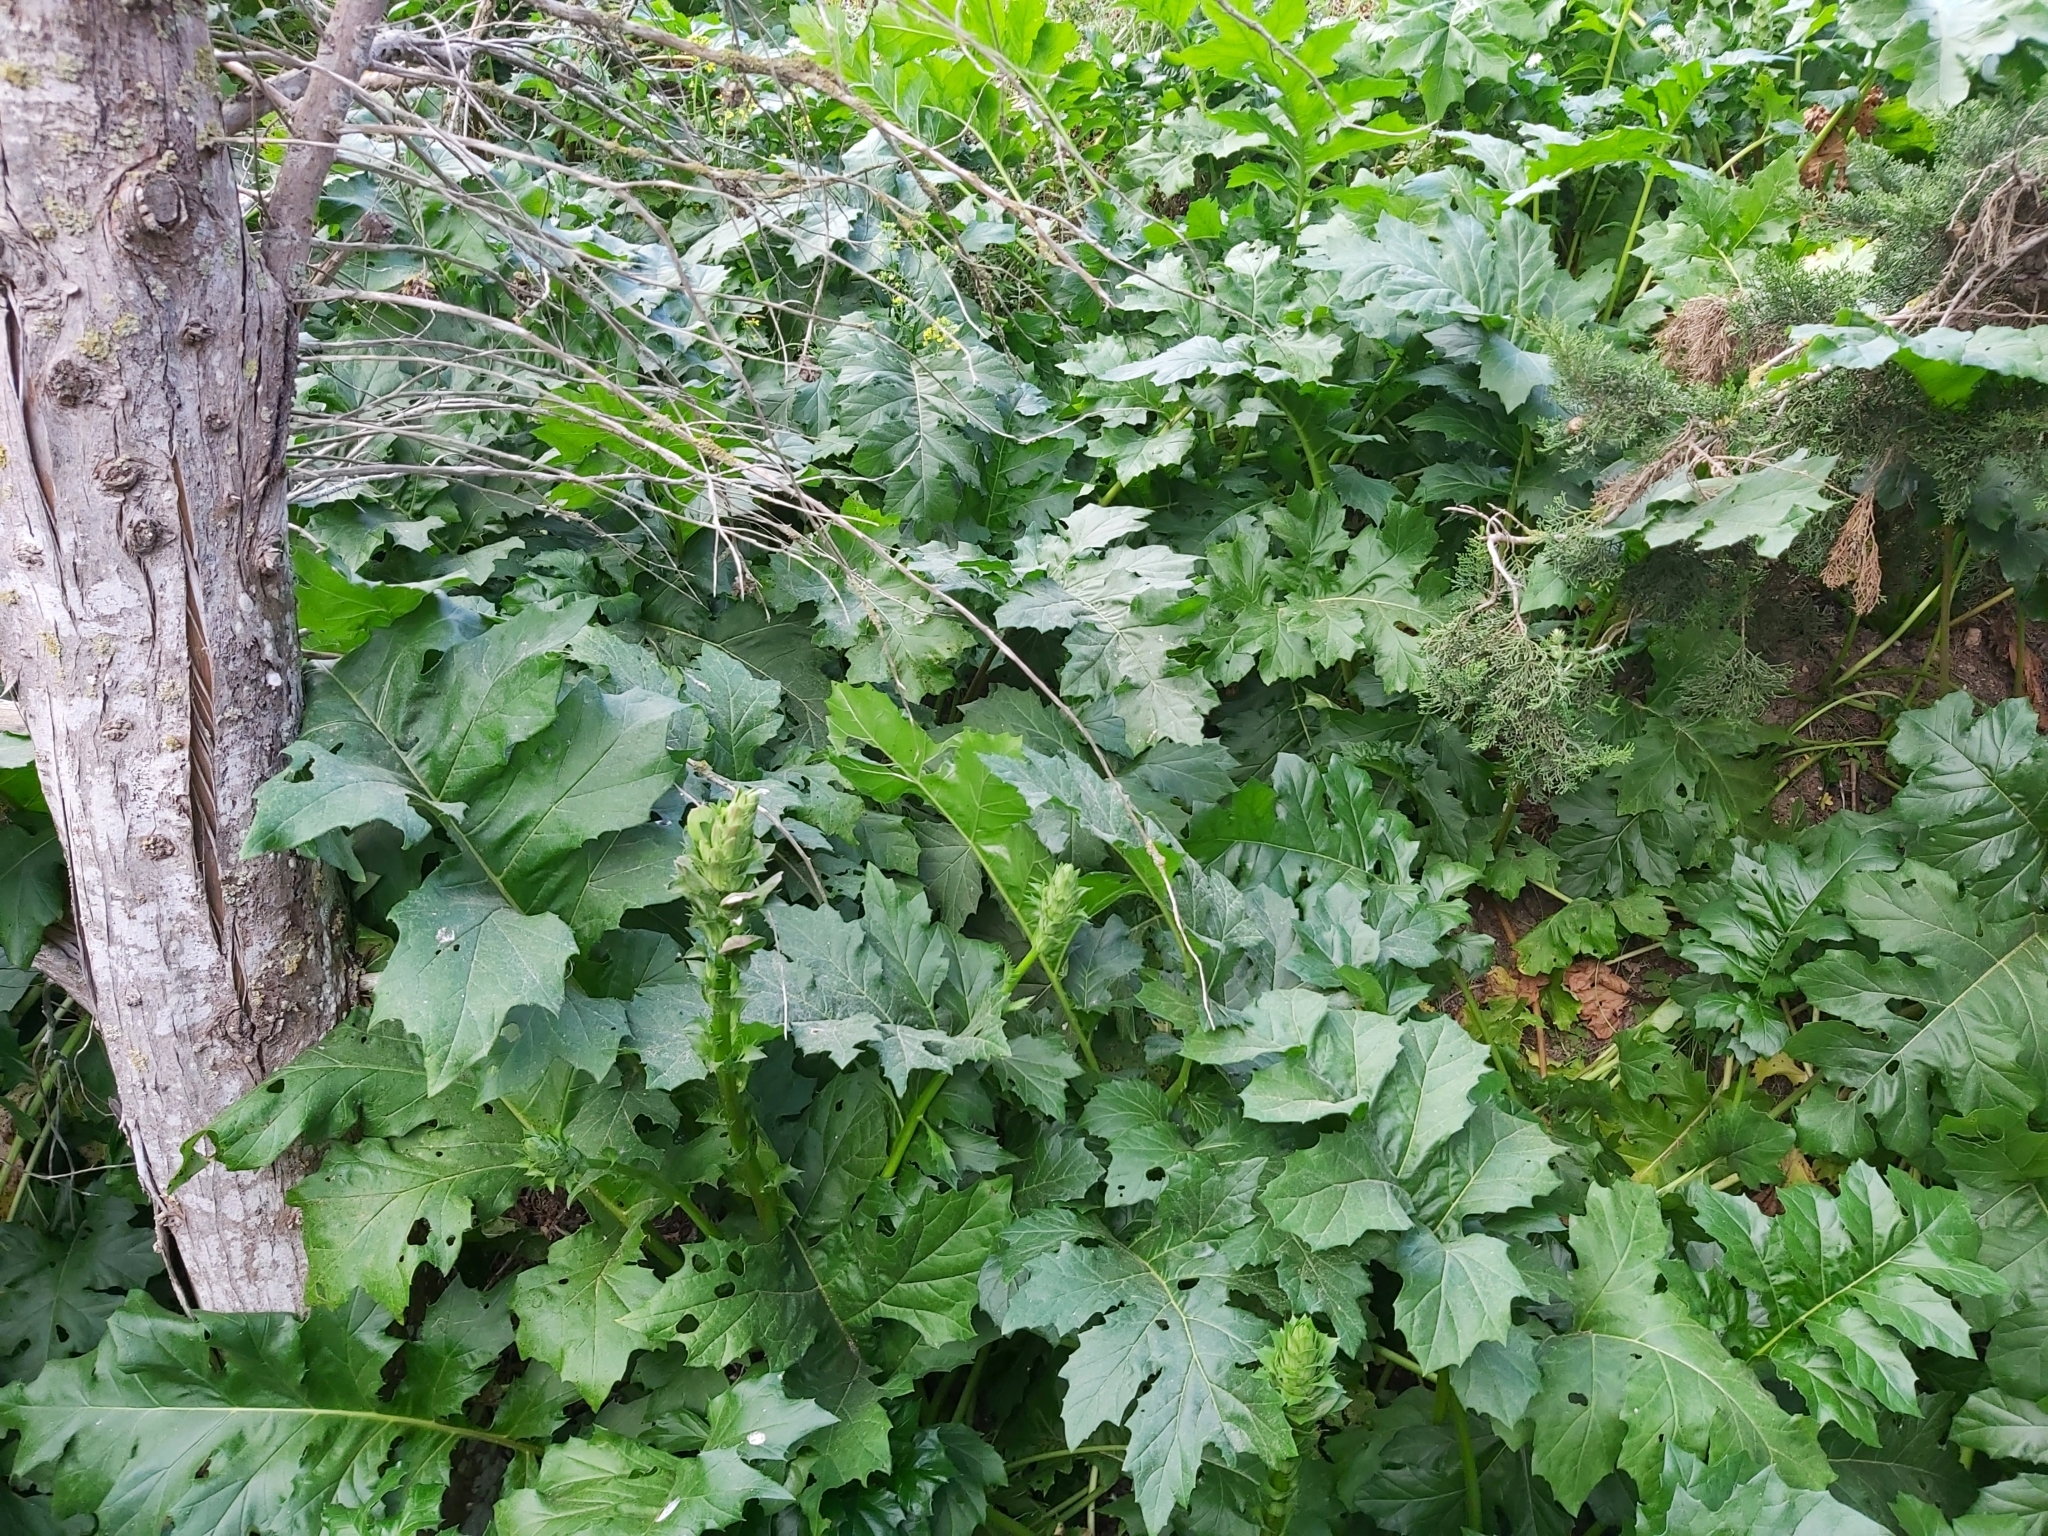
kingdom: Plantae
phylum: Tracheophyta
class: Magnoliopsida
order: Lamiales
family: Acanthaceae
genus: Acanthus
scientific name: Acanthus mollis
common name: Bear's-breech
